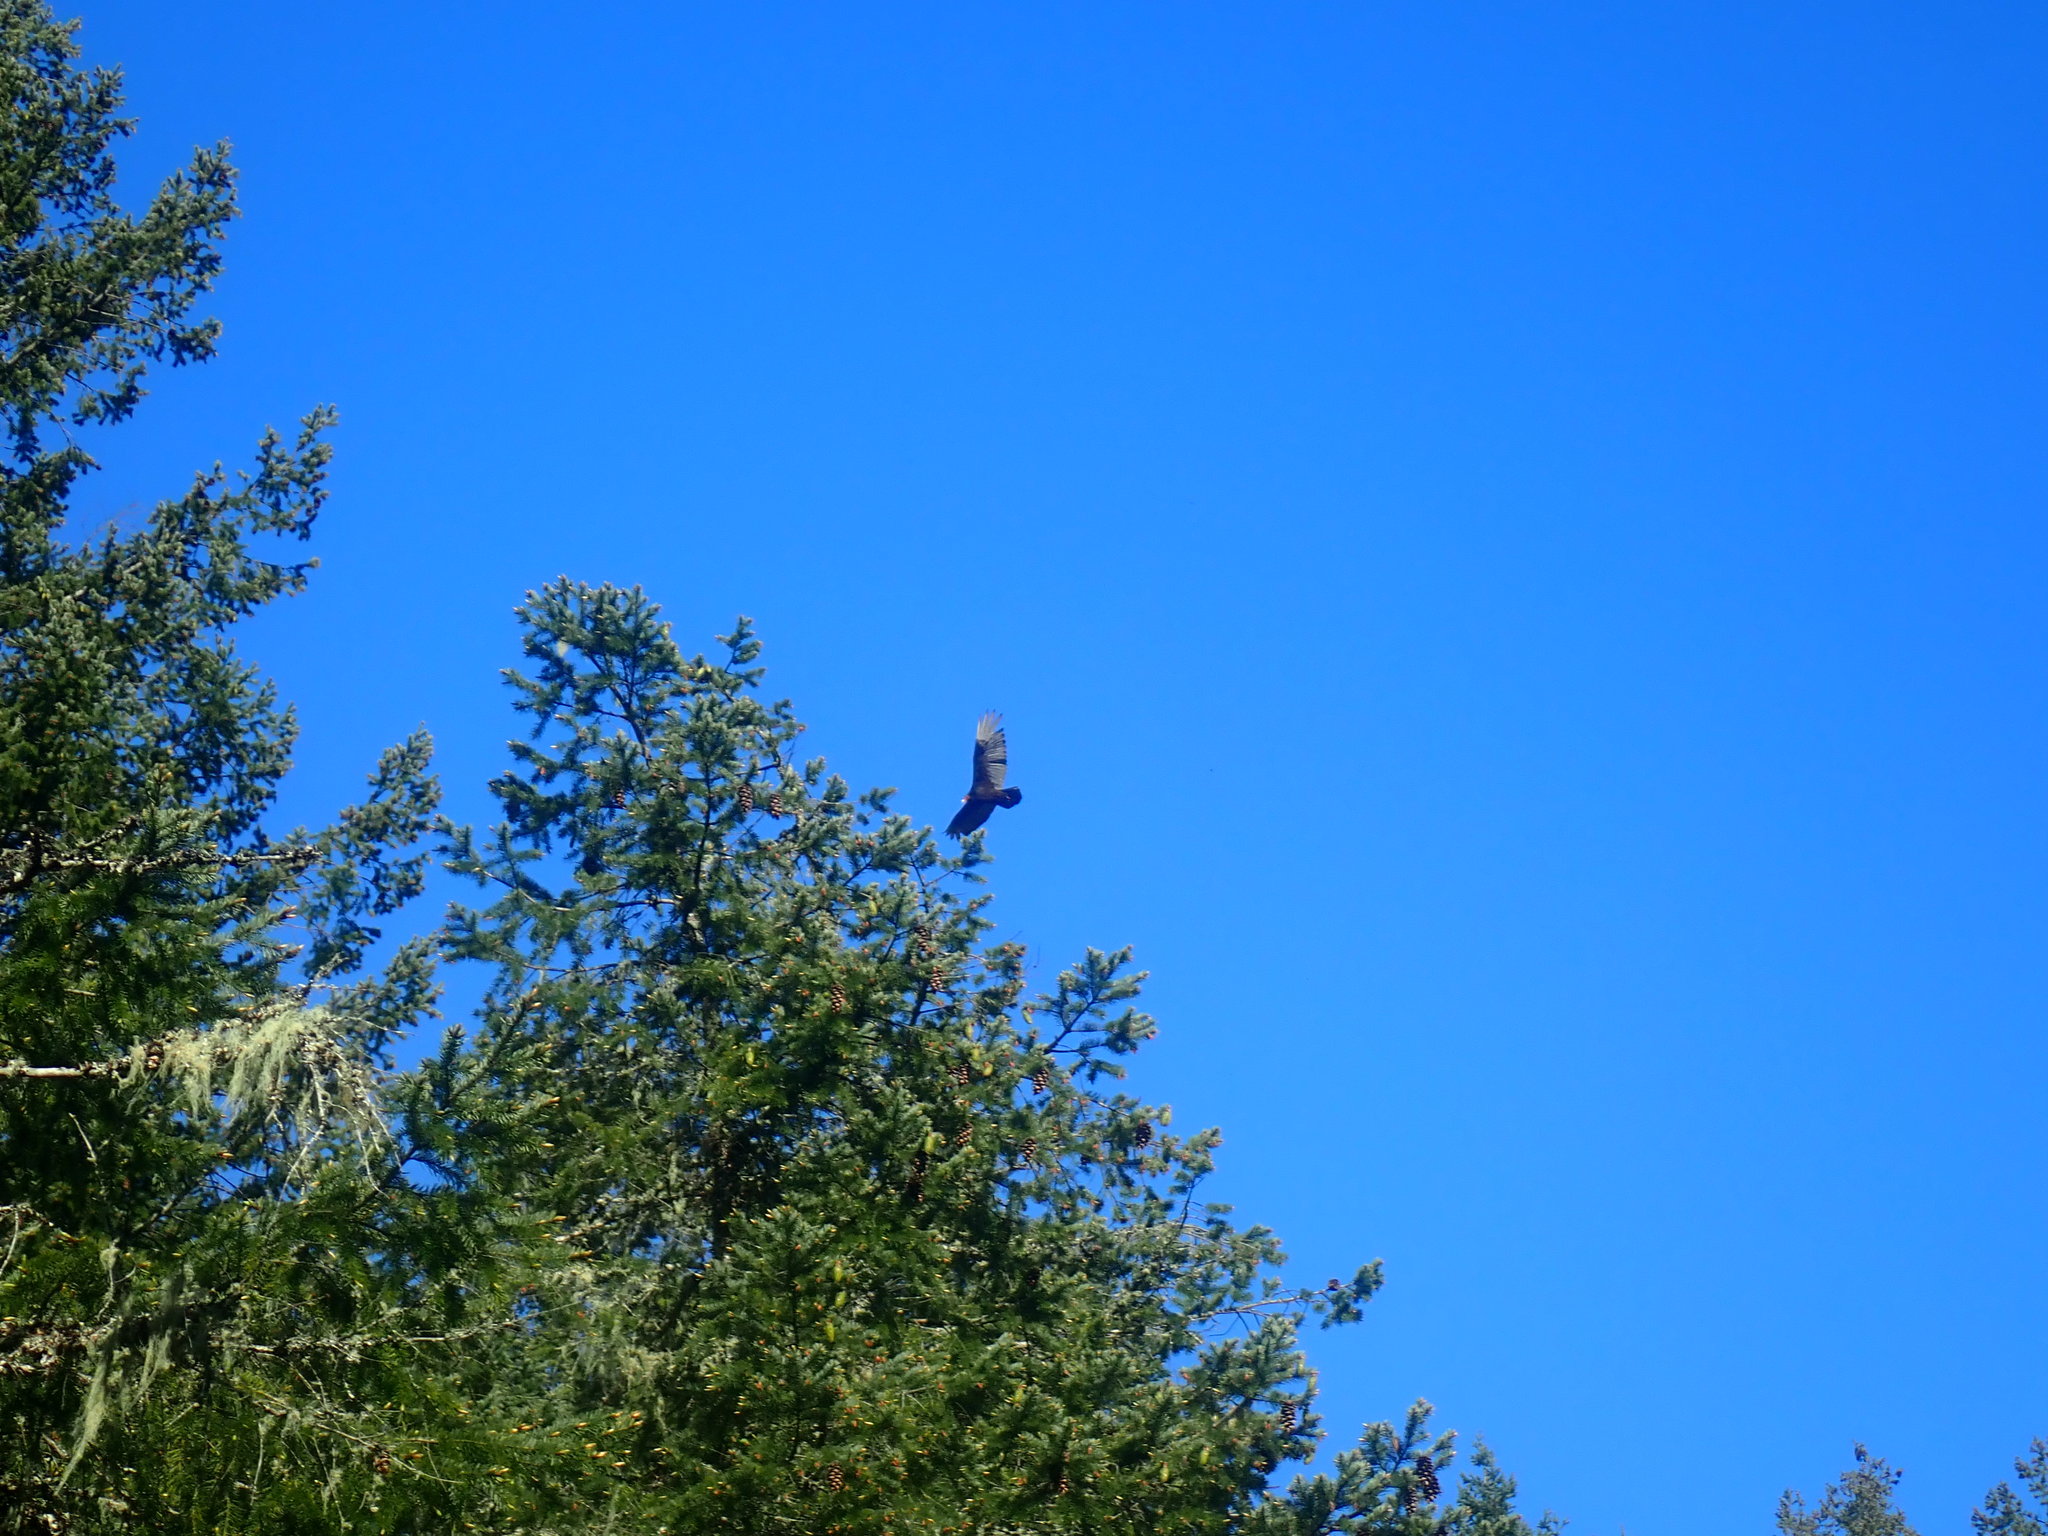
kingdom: Animalia
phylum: Chordata
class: Aves
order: Accipitriformes
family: Cathartidae
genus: Cathartes
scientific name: Cathartes aura
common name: Turkey vulture
